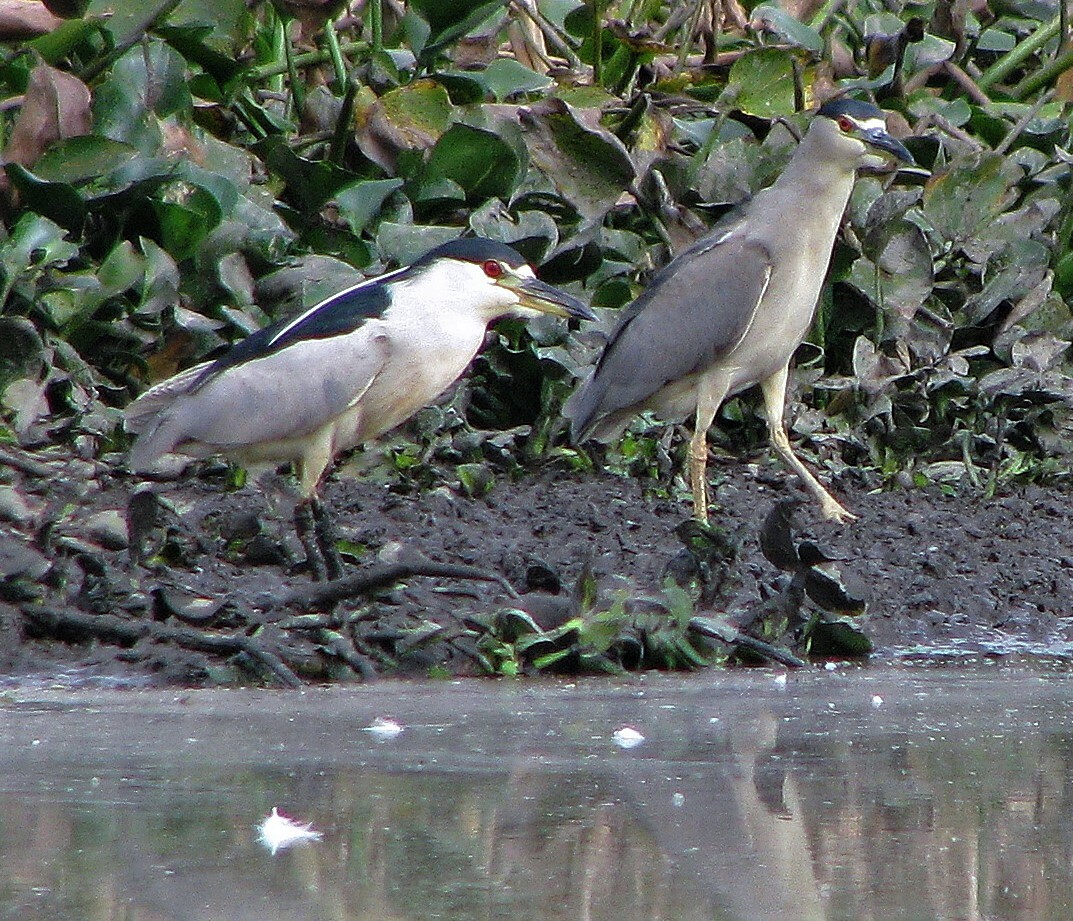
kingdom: Animalia
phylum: Chordata
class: Aves
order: Pelecaniformes
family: Ardeidae
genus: Nycticorax
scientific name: Nycticorax nycticorax
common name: Black-crowned night heron
